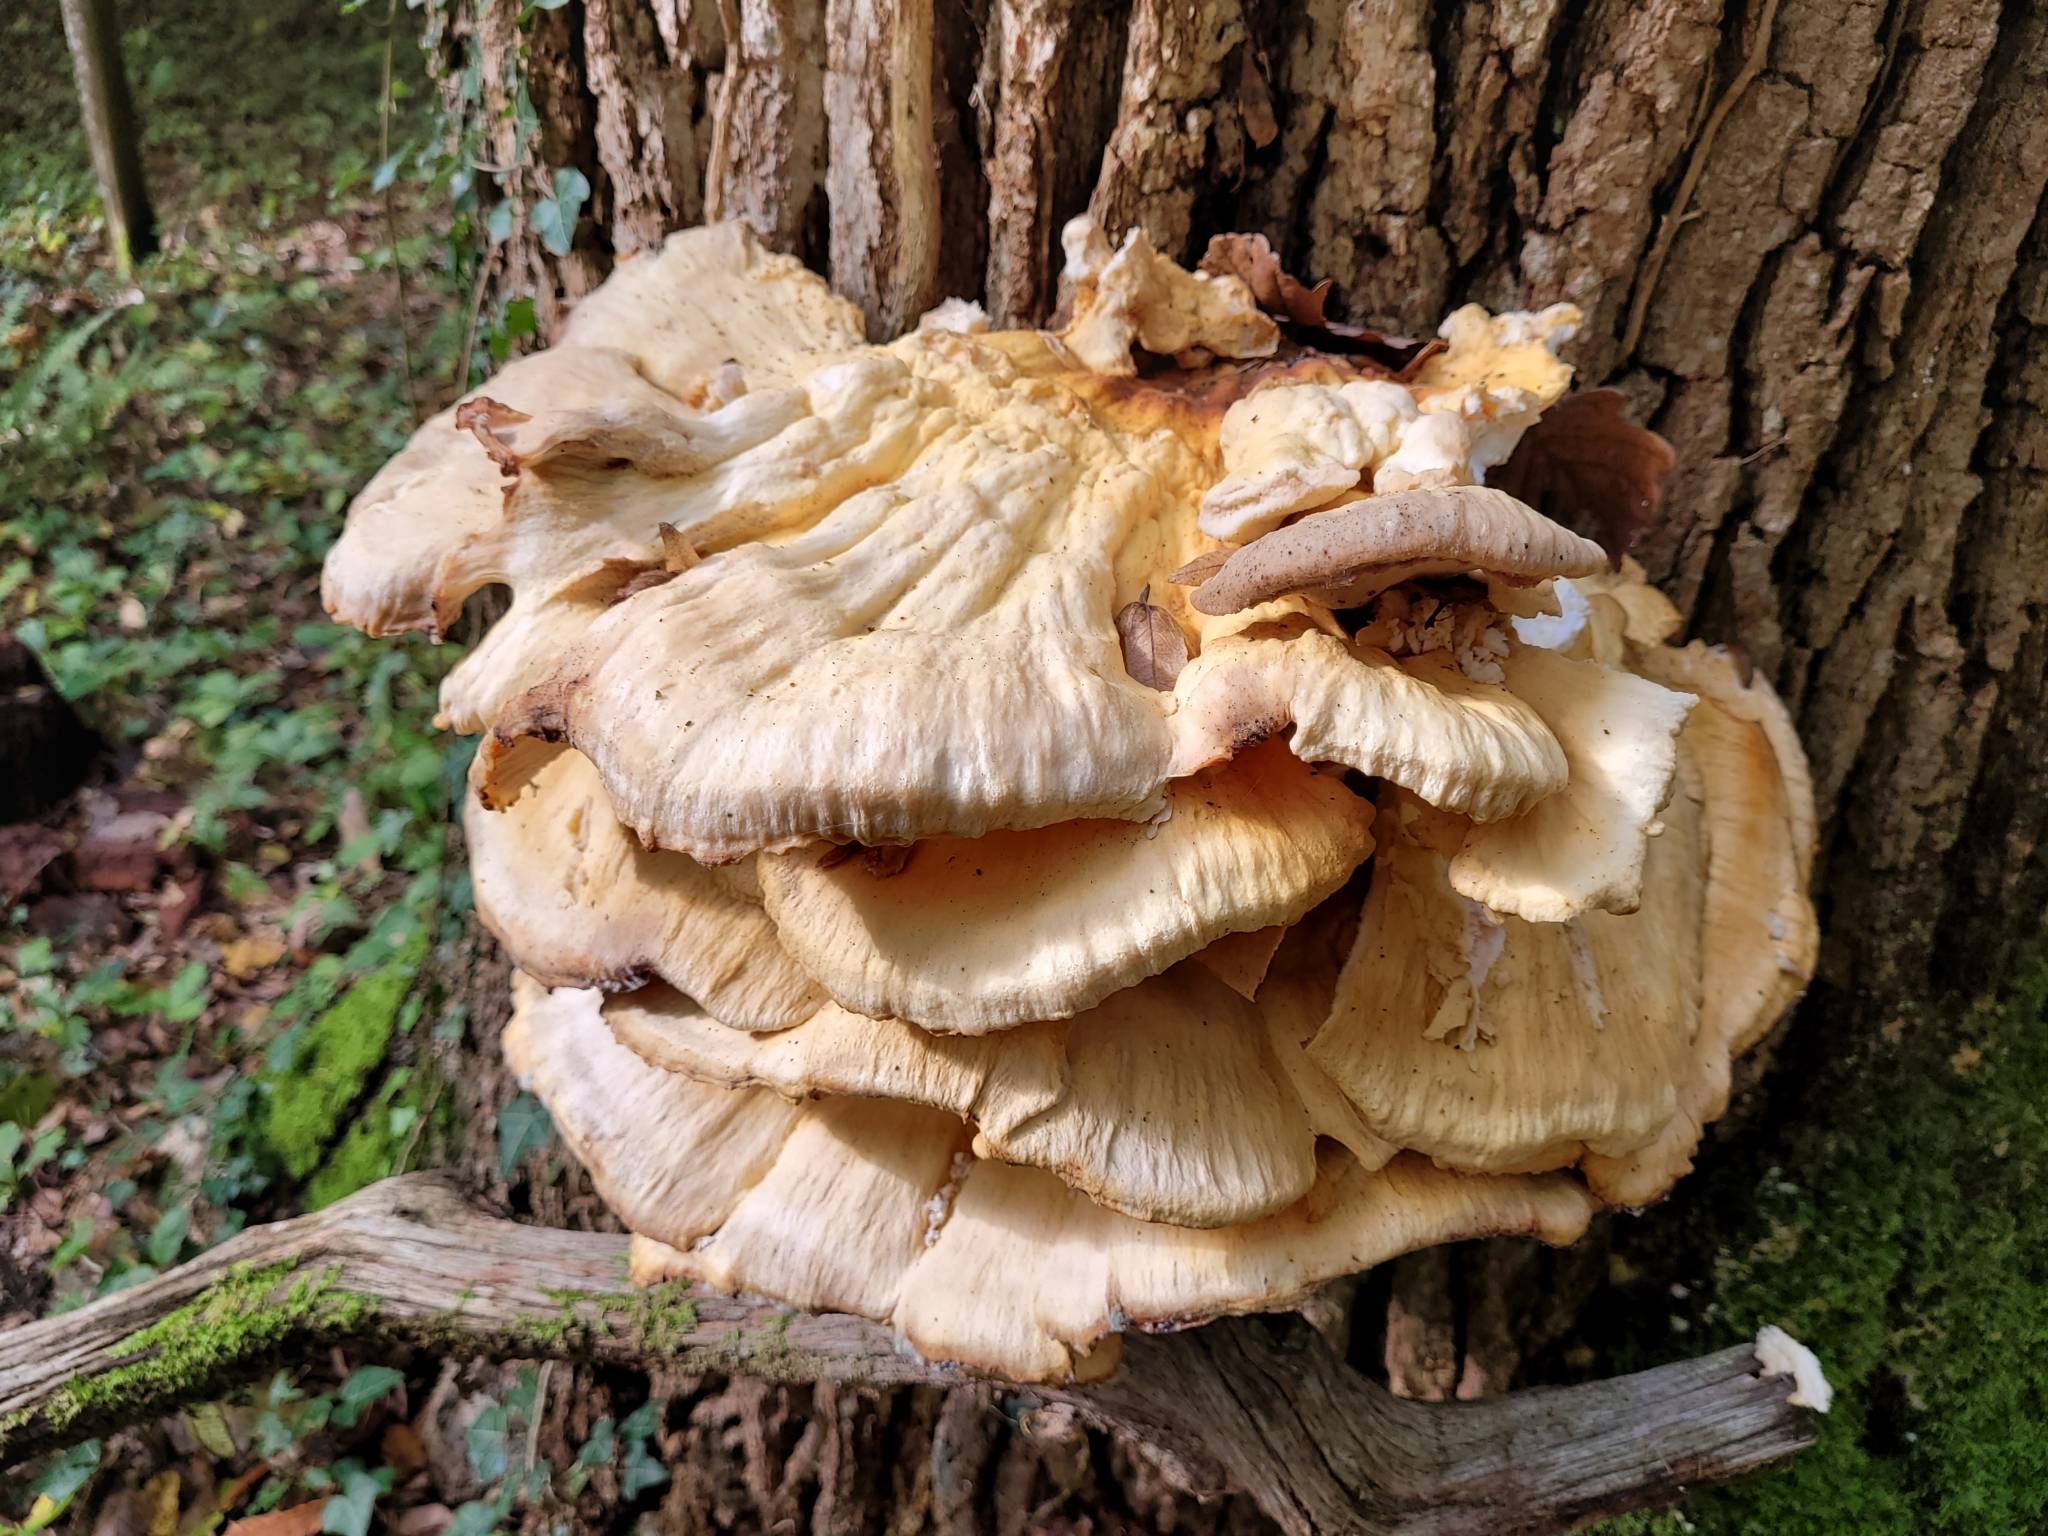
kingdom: Fungi
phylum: Basidiomycota
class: Agaricomycetes
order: Polyporales
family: Laetiporaceae
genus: Laetiporus
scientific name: Laetiporus sulphureus
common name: Chicken of the woods
